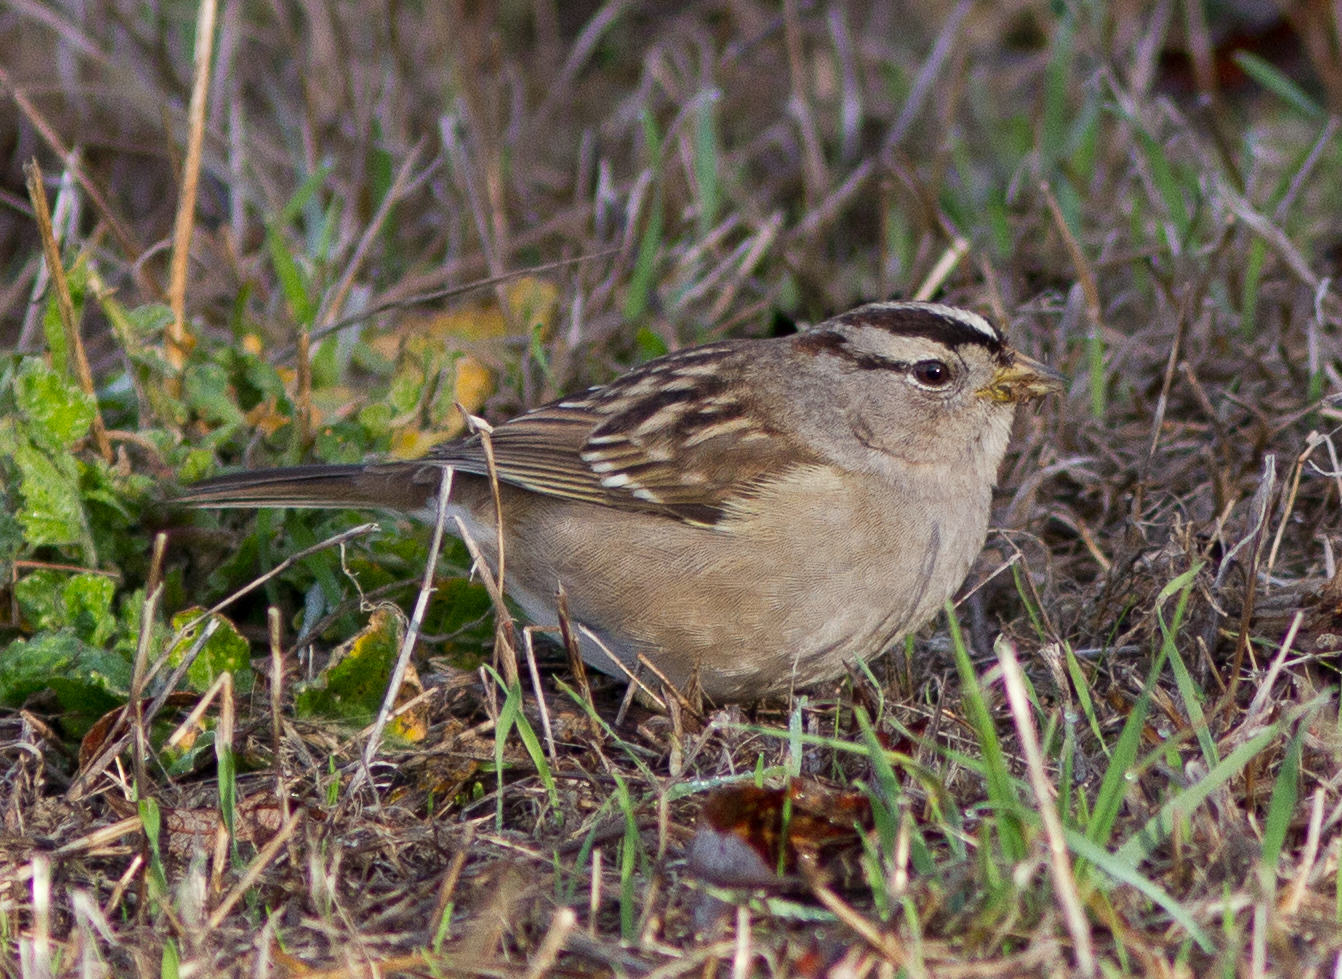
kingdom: Animalia
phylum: Chordata
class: Aves
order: Passeriformes
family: Passerellidae
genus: Zonotrichia
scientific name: Zonotrichia leucophrys
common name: White-crowned sparrow
